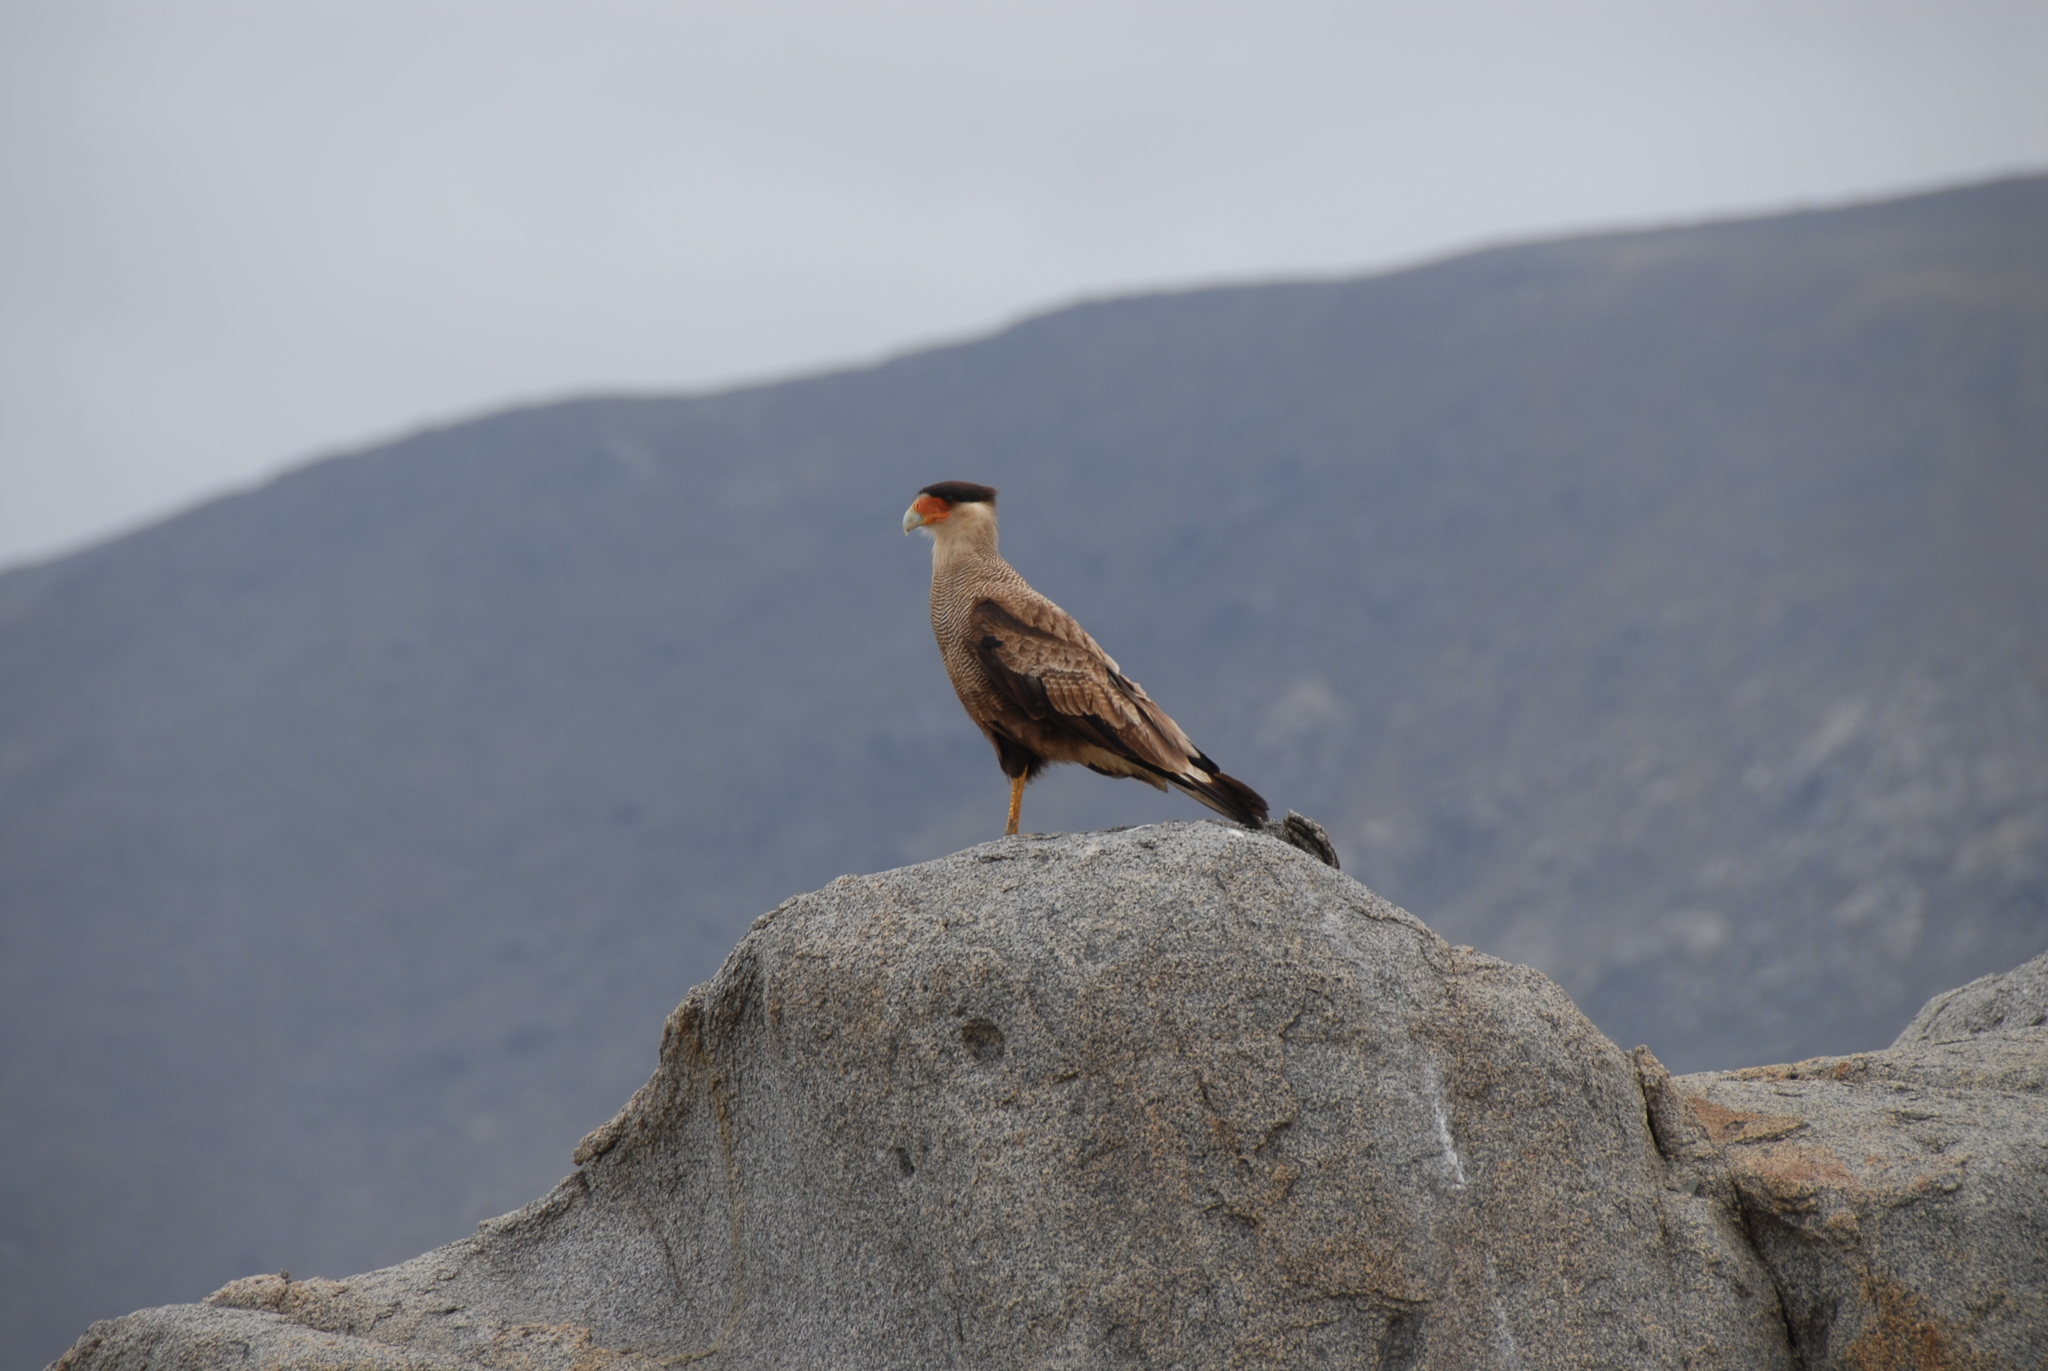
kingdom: Animalia
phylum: Chordata
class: Aves
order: Falconiformes
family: Falconidae
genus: Caracara
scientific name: Caracara plancus
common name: Southern caracara
